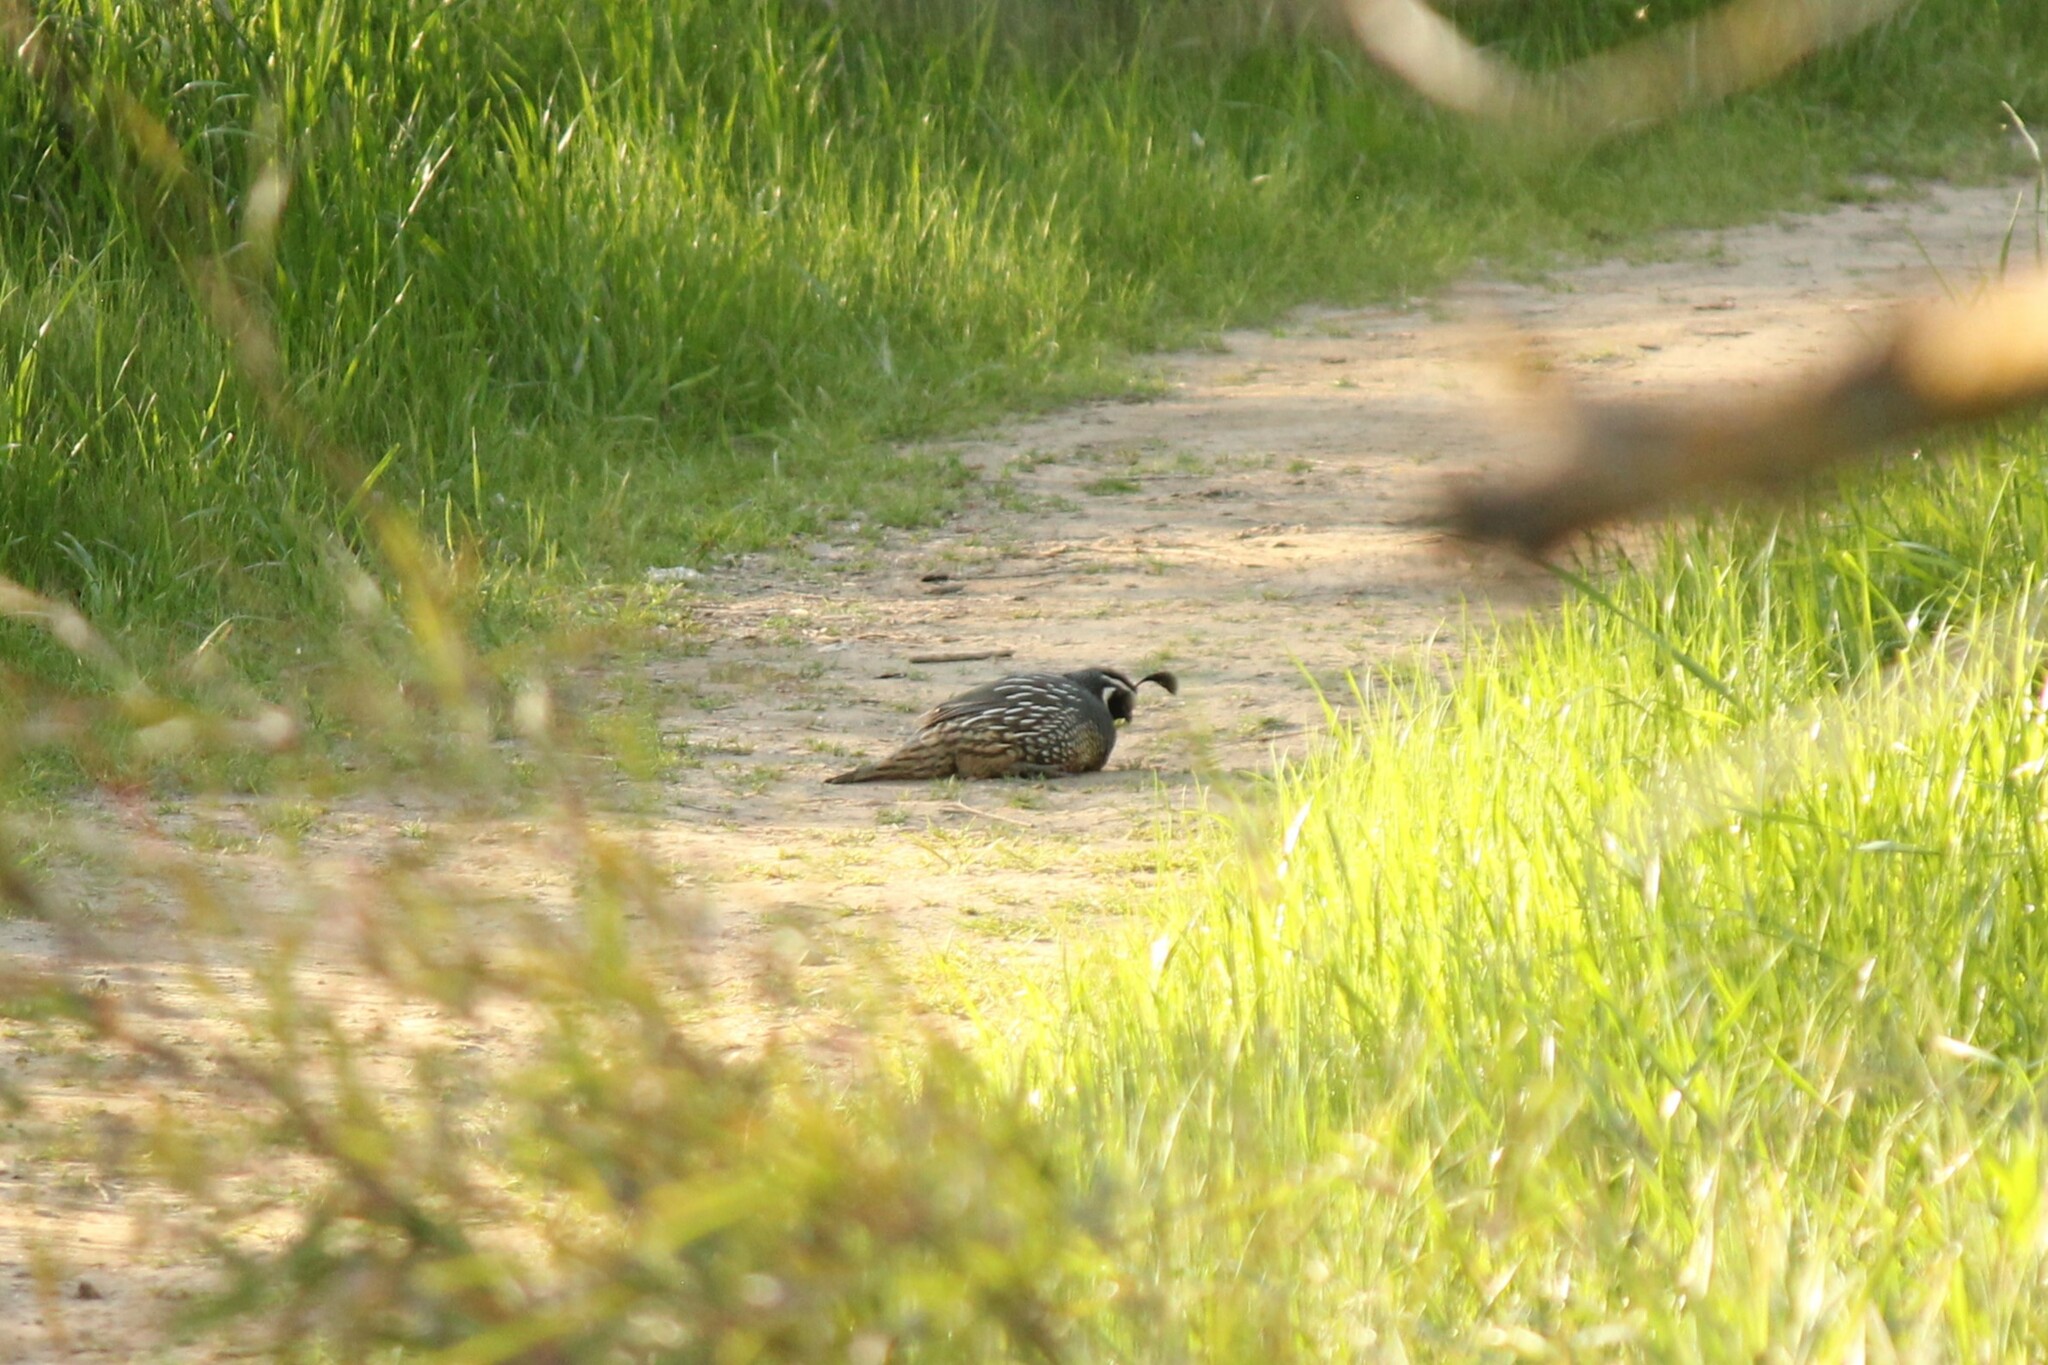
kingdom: Animalia
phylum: Chordata
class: Aves
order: Galliformes
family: Odontophoridae
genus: Callipepla
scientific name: Callipepla californica
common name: California quail
